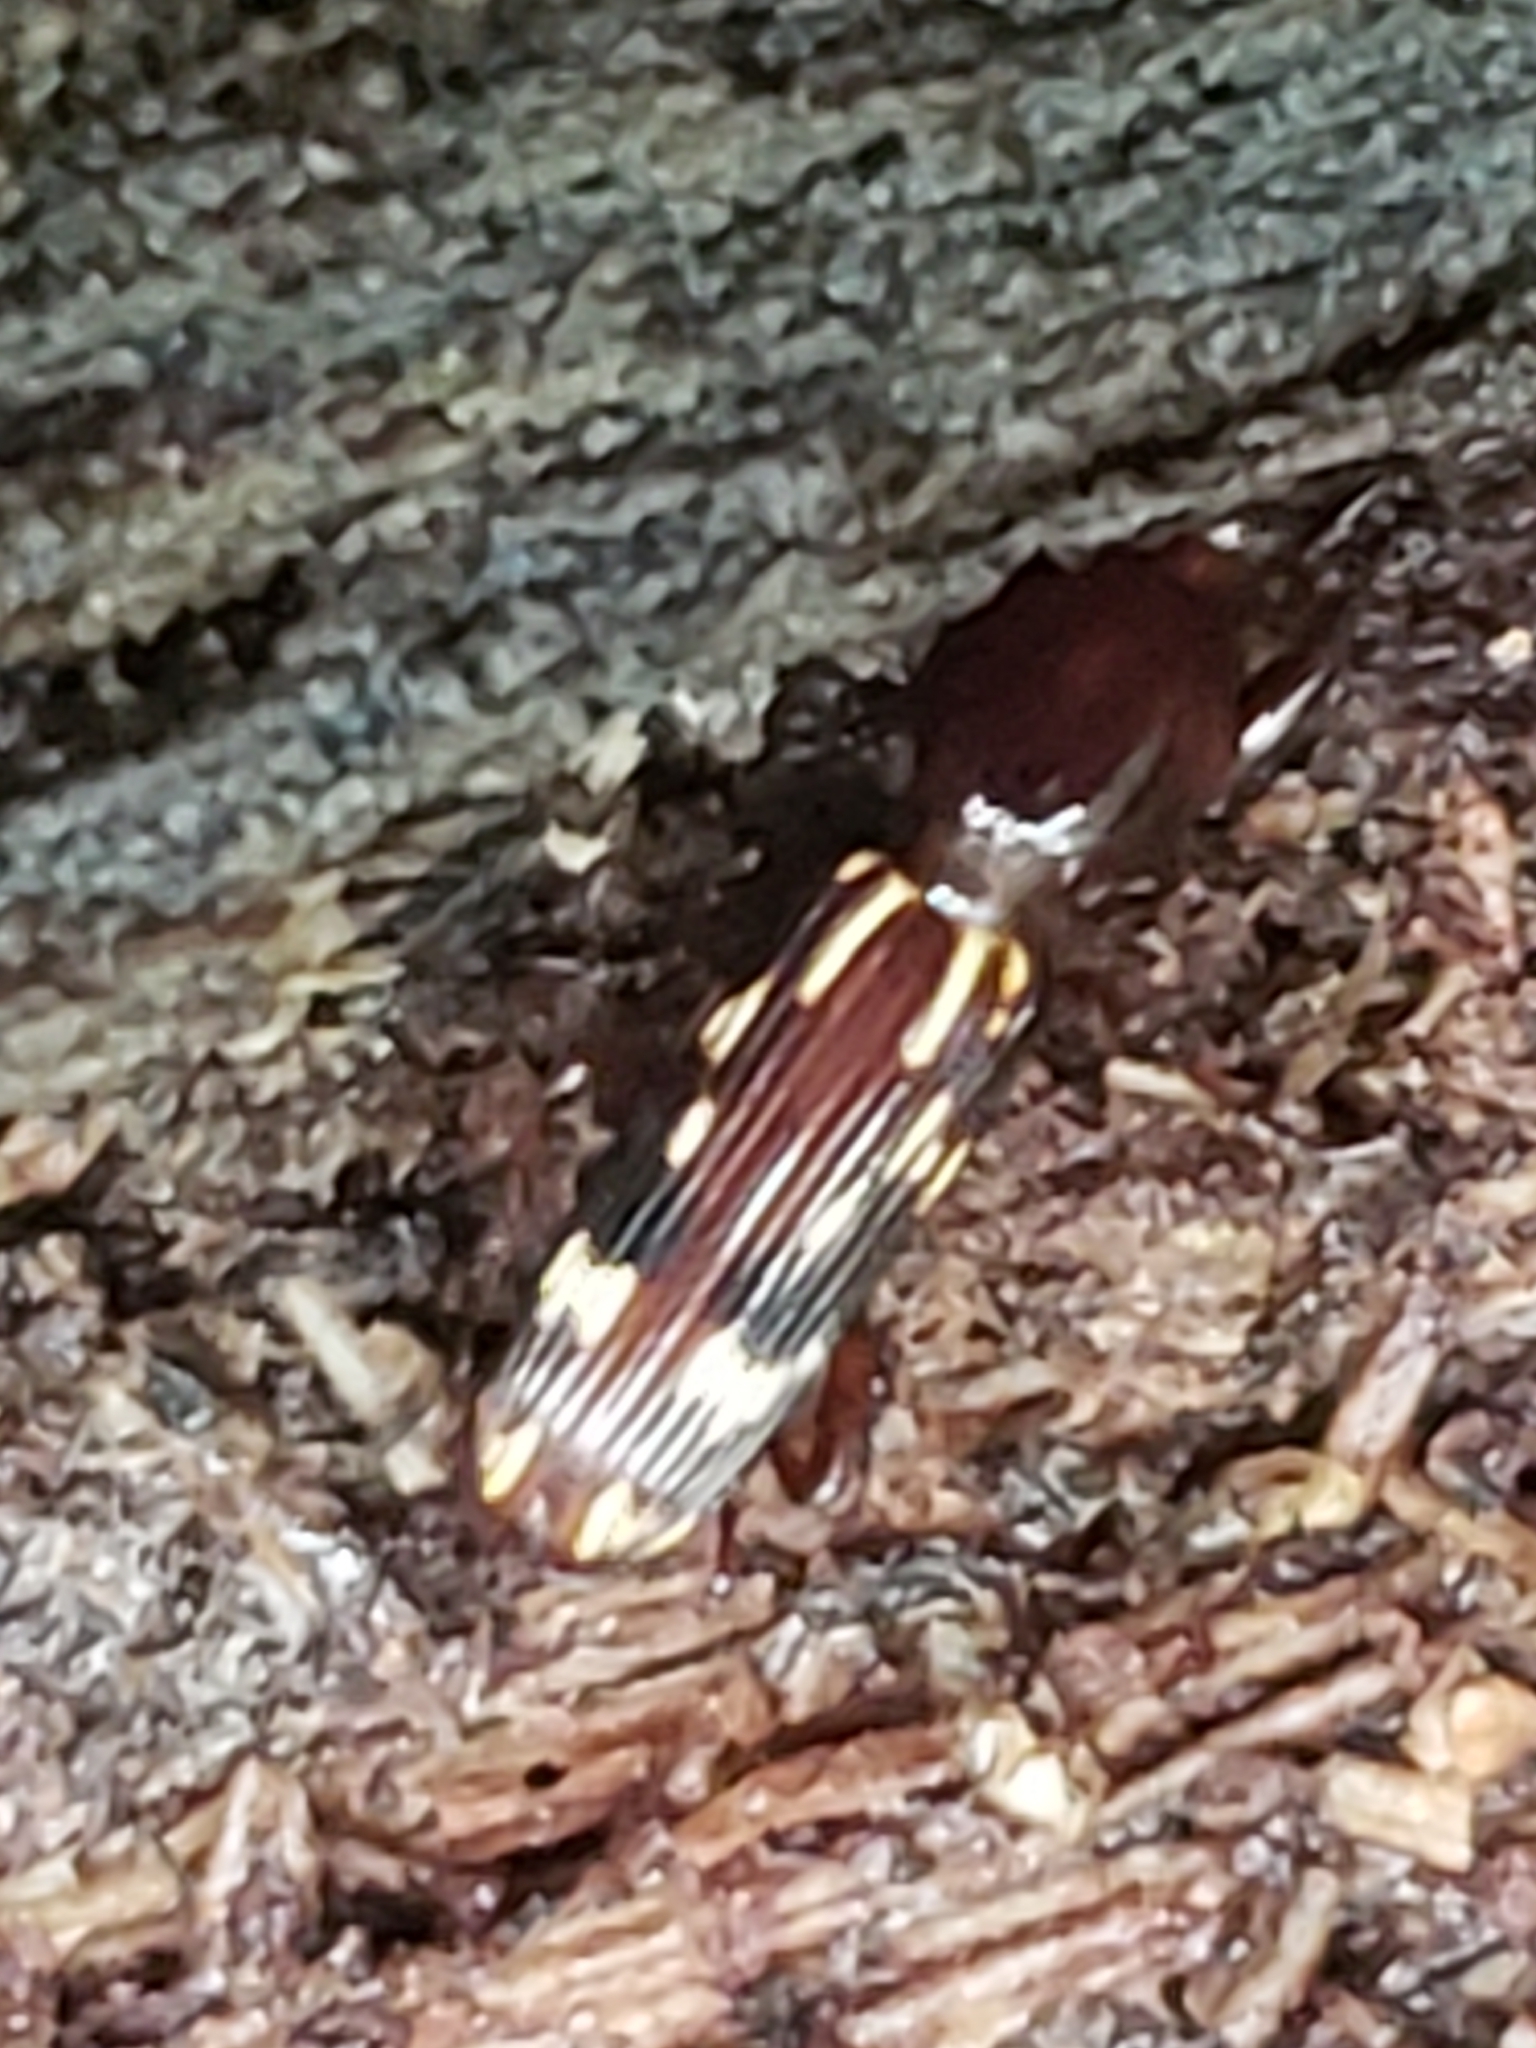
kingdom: Animalia
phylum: Arthropoda
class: Insecta
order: Coleoptera
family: Brentidae
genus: Arrenodes
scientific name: Arrenodes minutus
